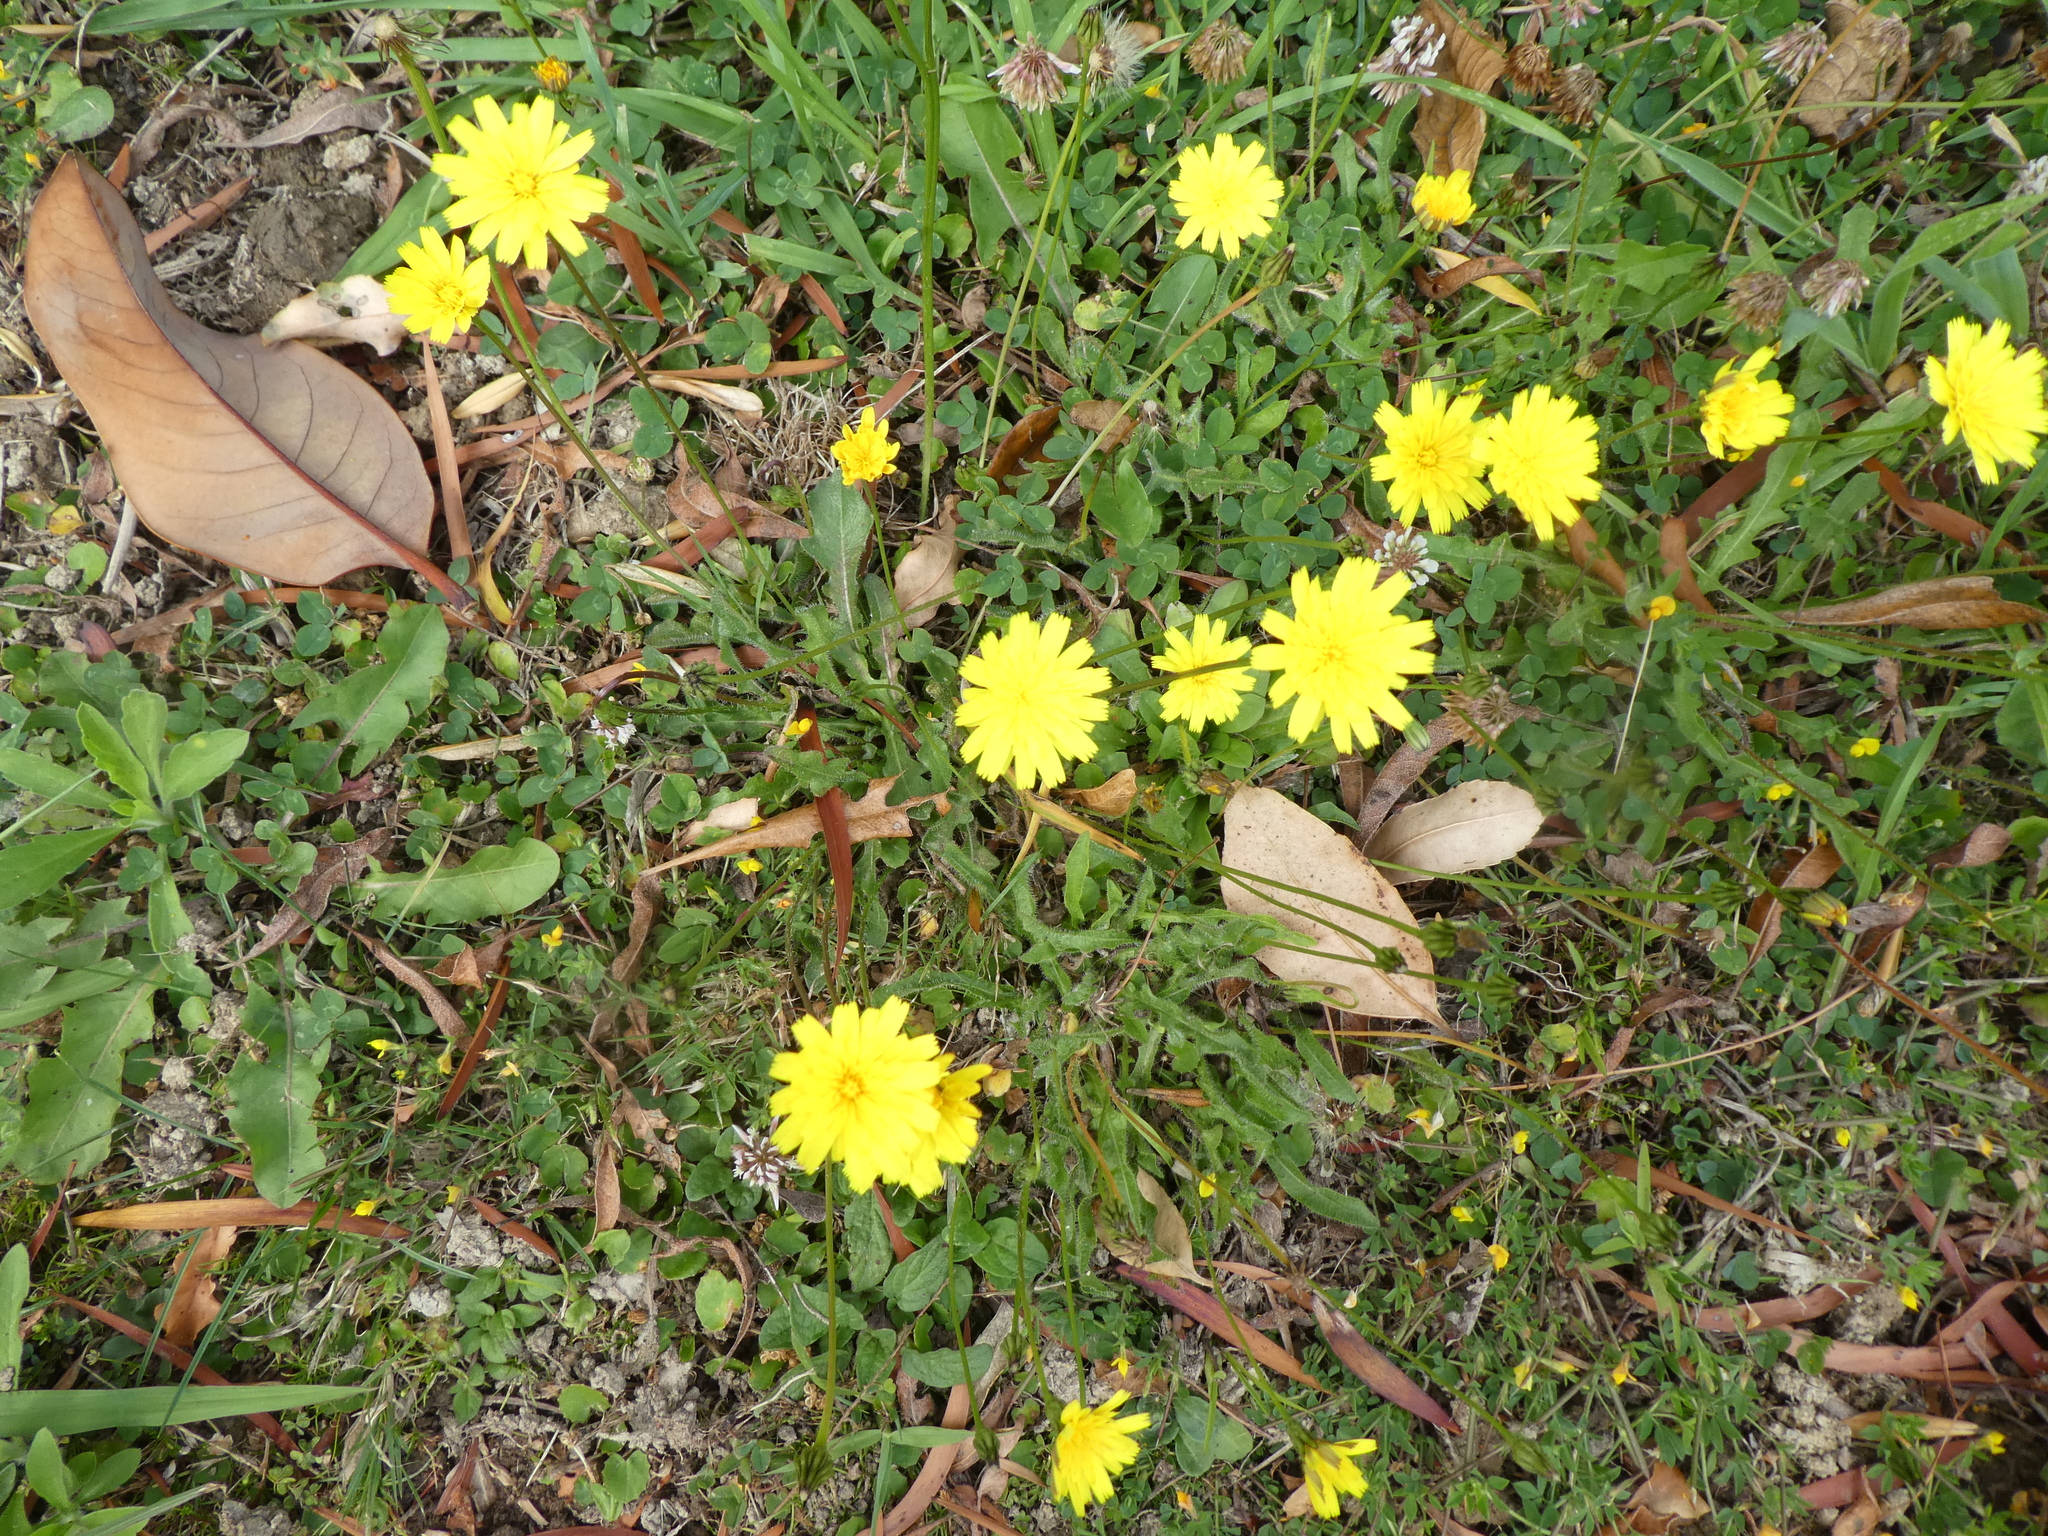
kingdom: Plantae
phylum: Tracheophyta
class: Magnoliopsida
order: Asterales
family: Asteraceae
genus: Thrincia
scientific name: Thrincia saxatilis
